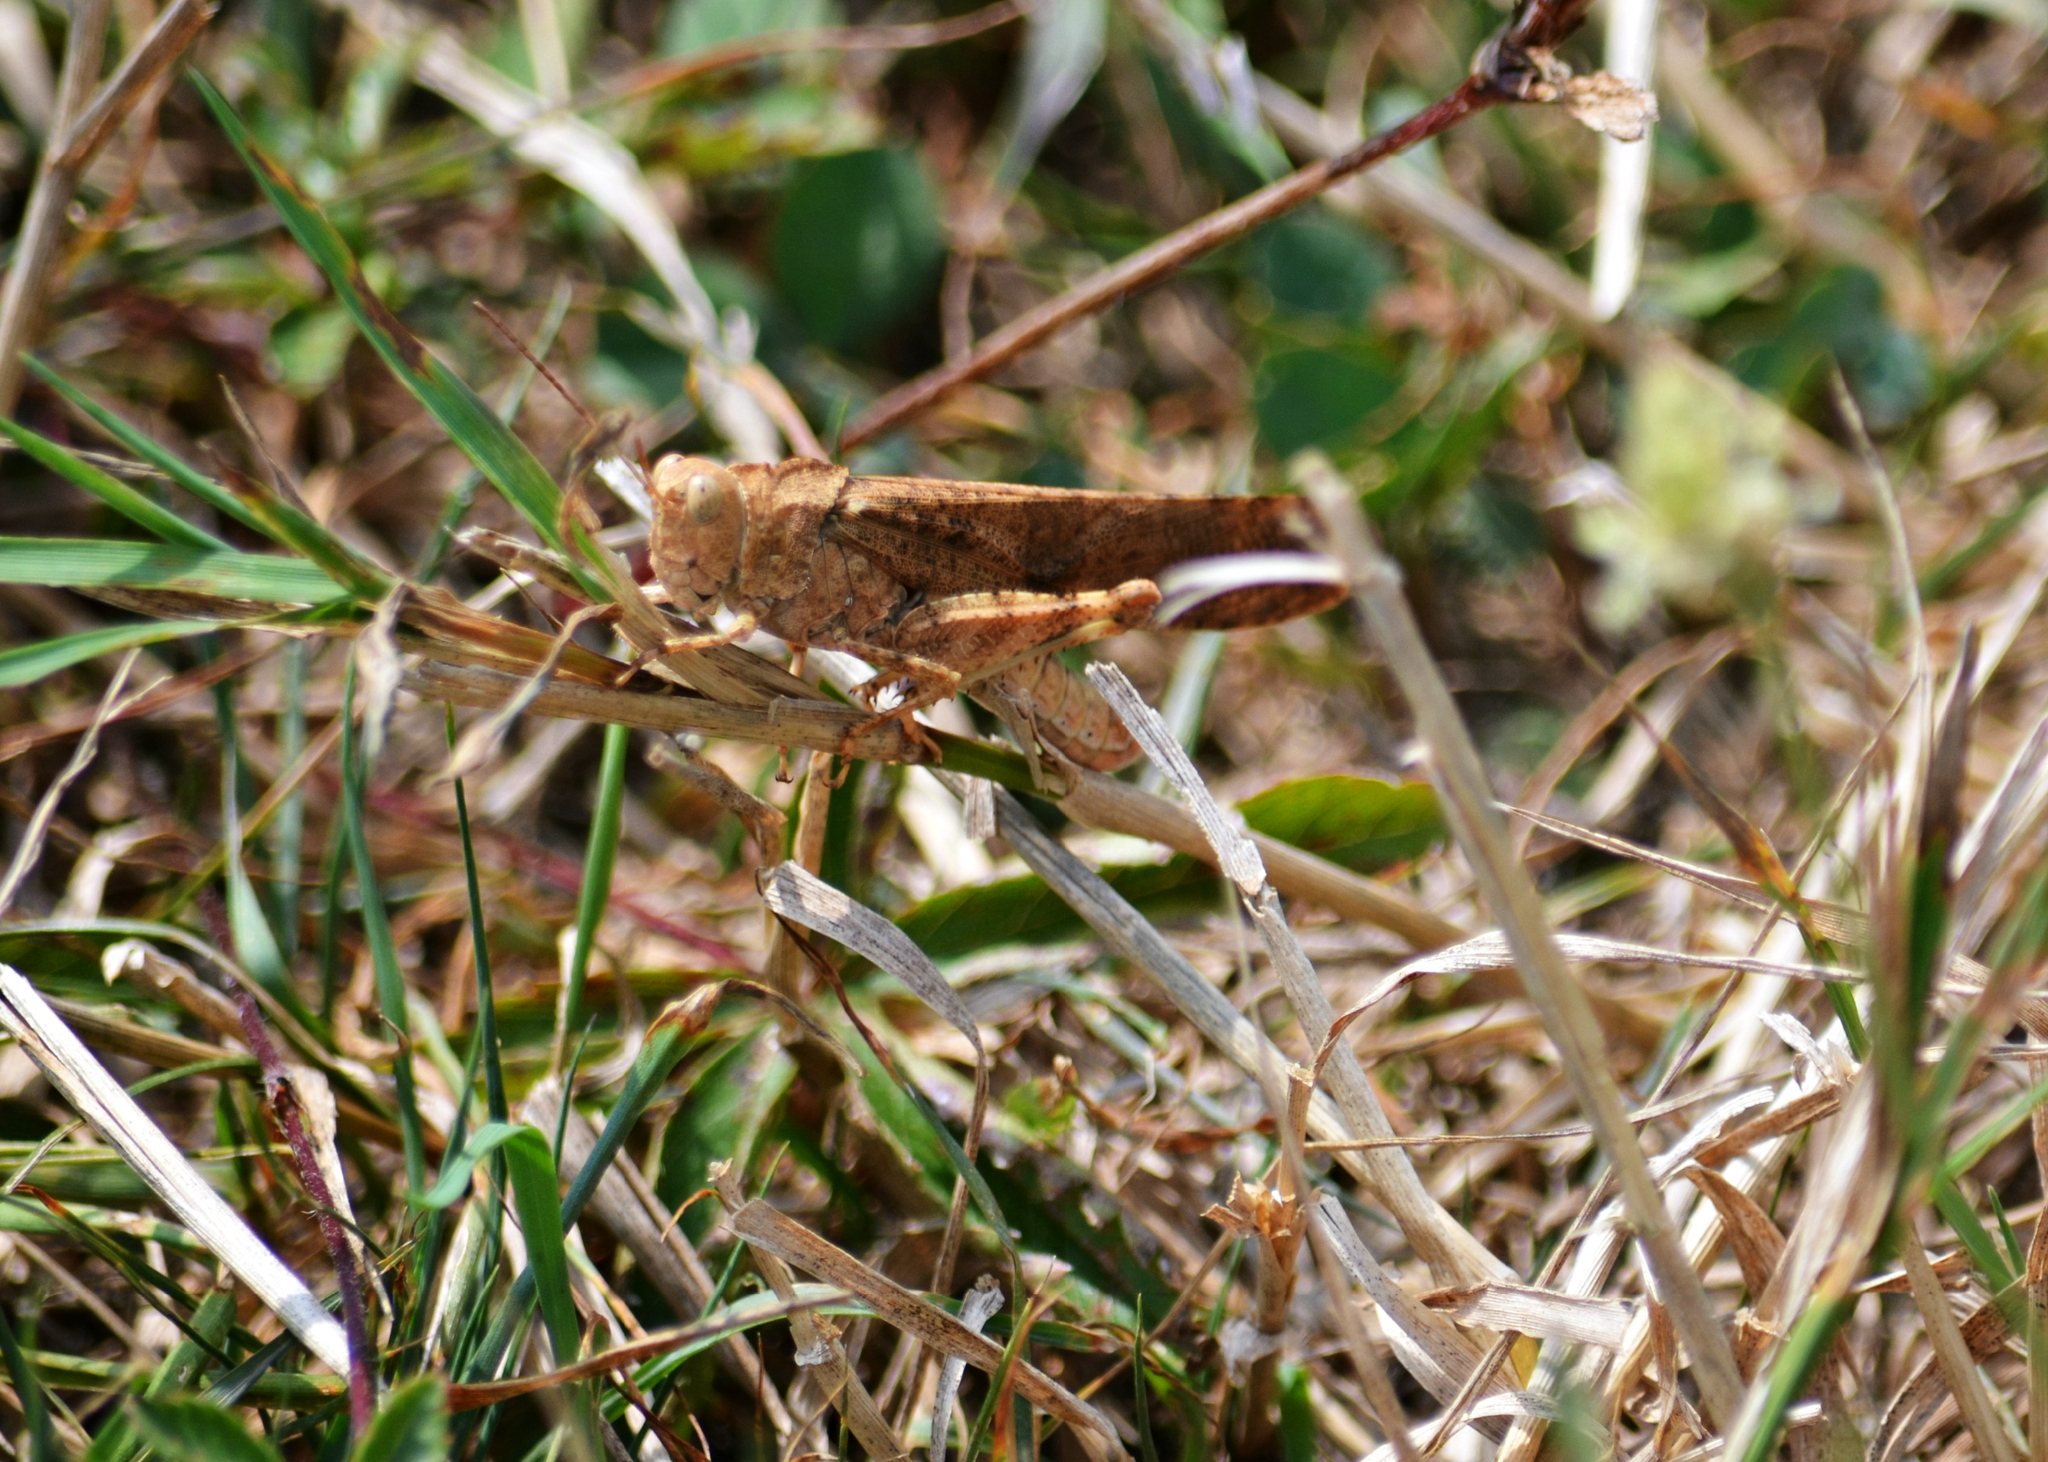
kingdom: Animalia
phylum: Arthropoda
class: Insecta
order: Orthoptera
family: Acrididae
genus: Dissosteira
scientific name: Dissosteira carolina
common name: Carolina grasshopper
